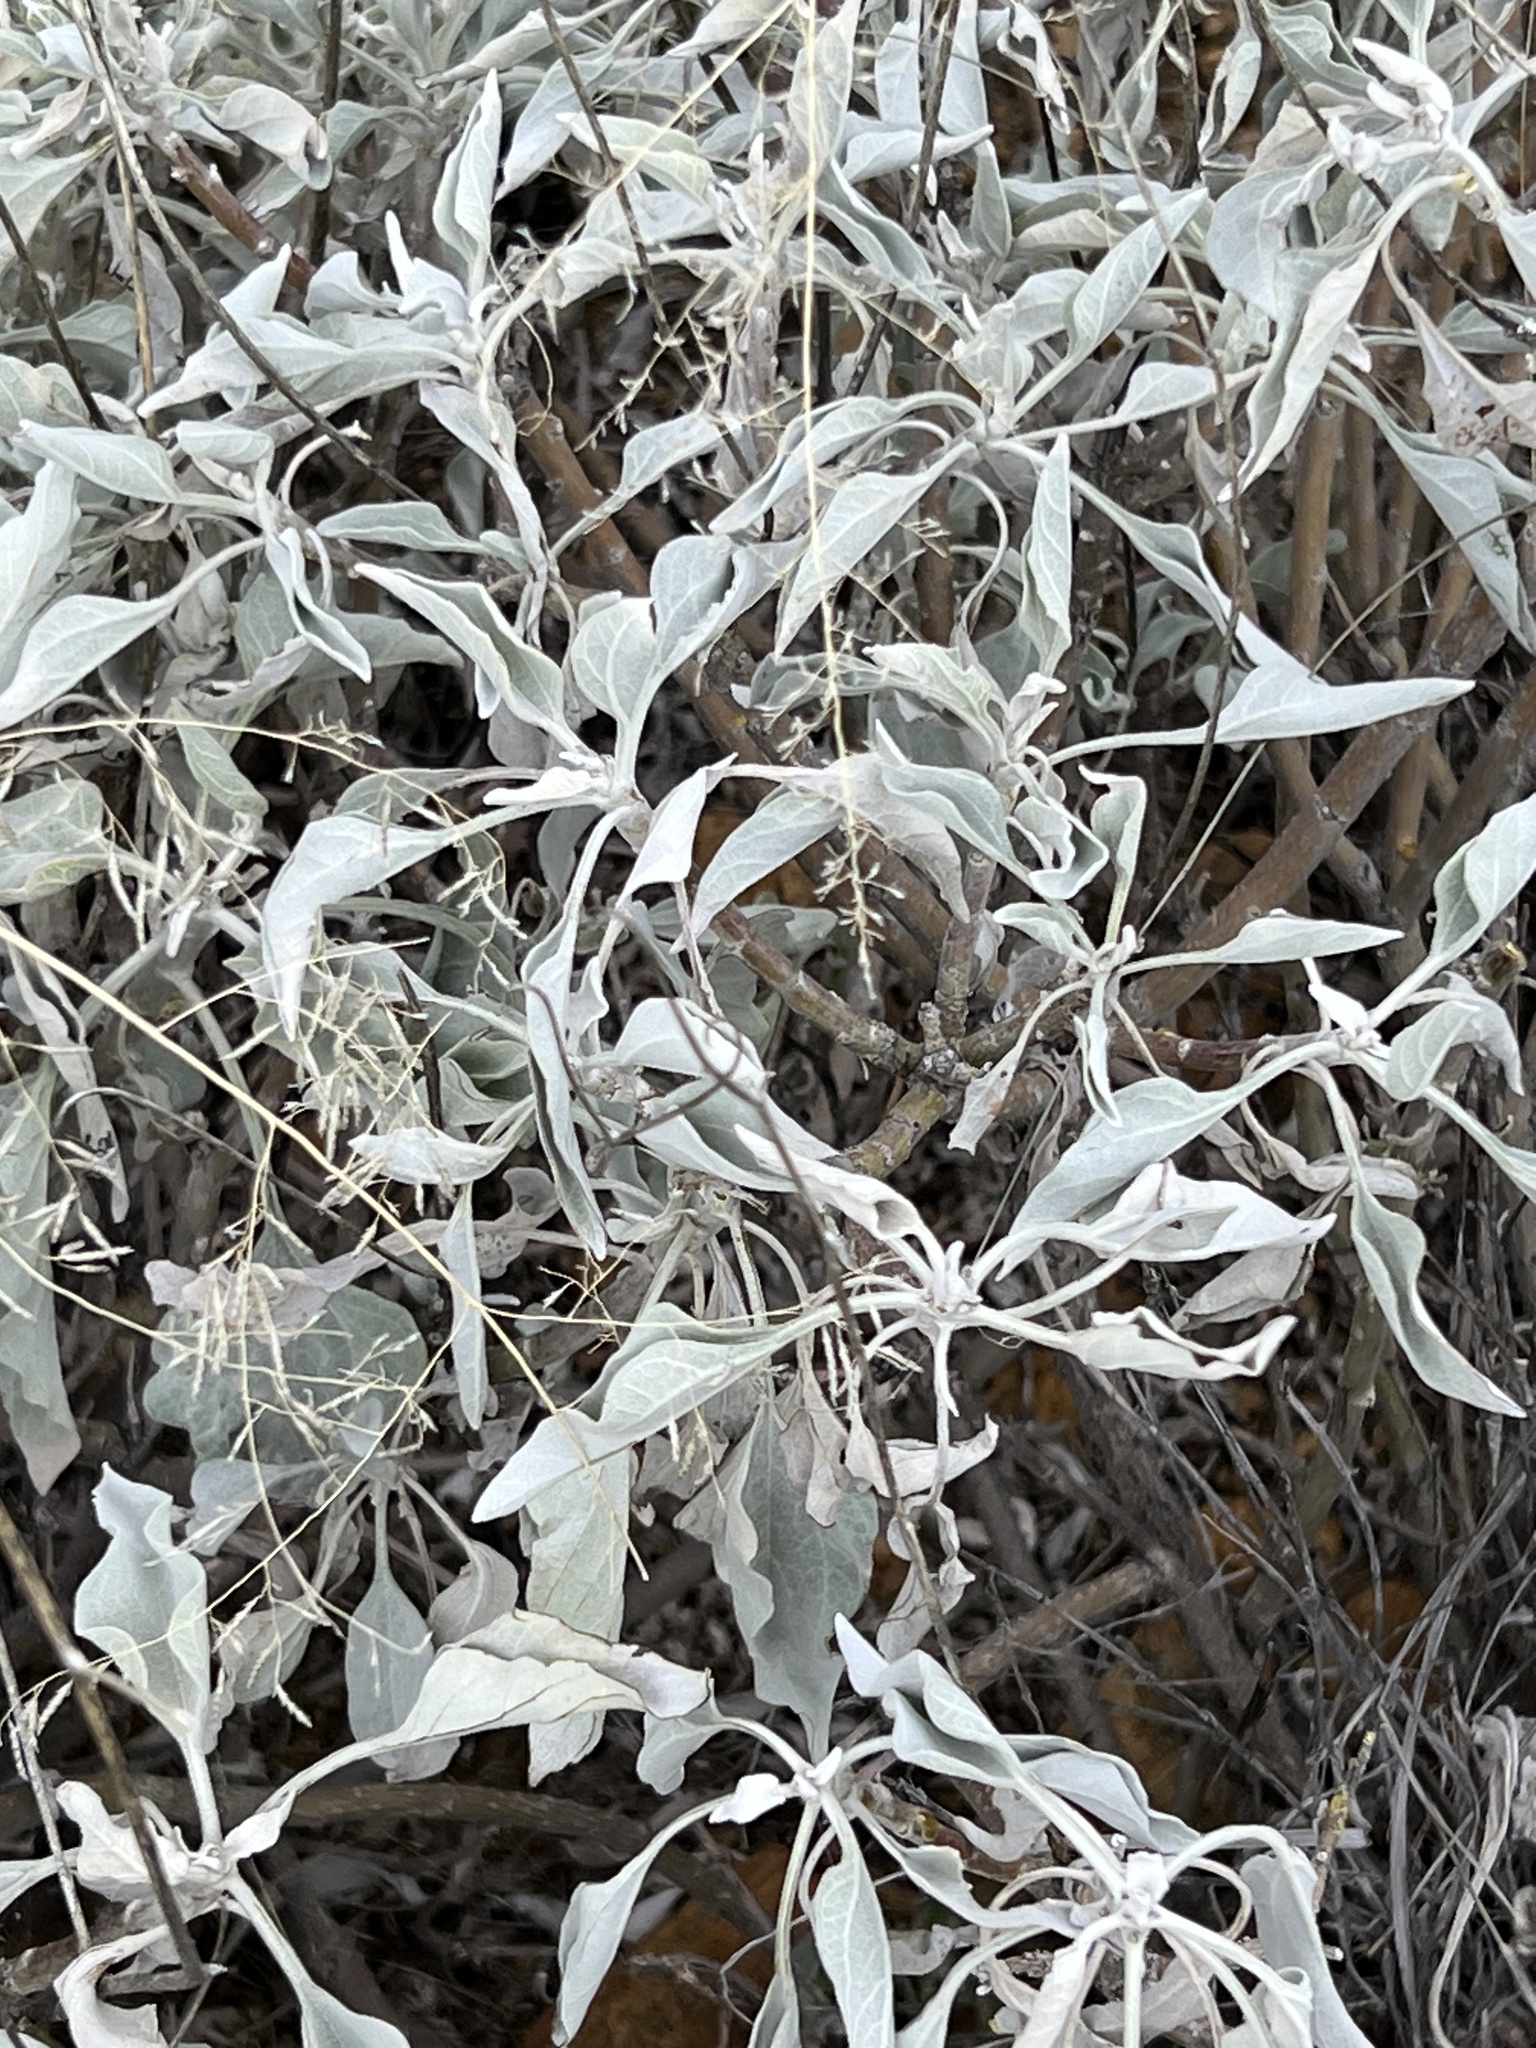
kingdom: Plantae
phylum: Tracheophyta
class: Magnoliopsida
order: Asterales
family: Asteraceae
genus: Encelia
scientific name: Encelia farinosa
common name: Brittlebush
